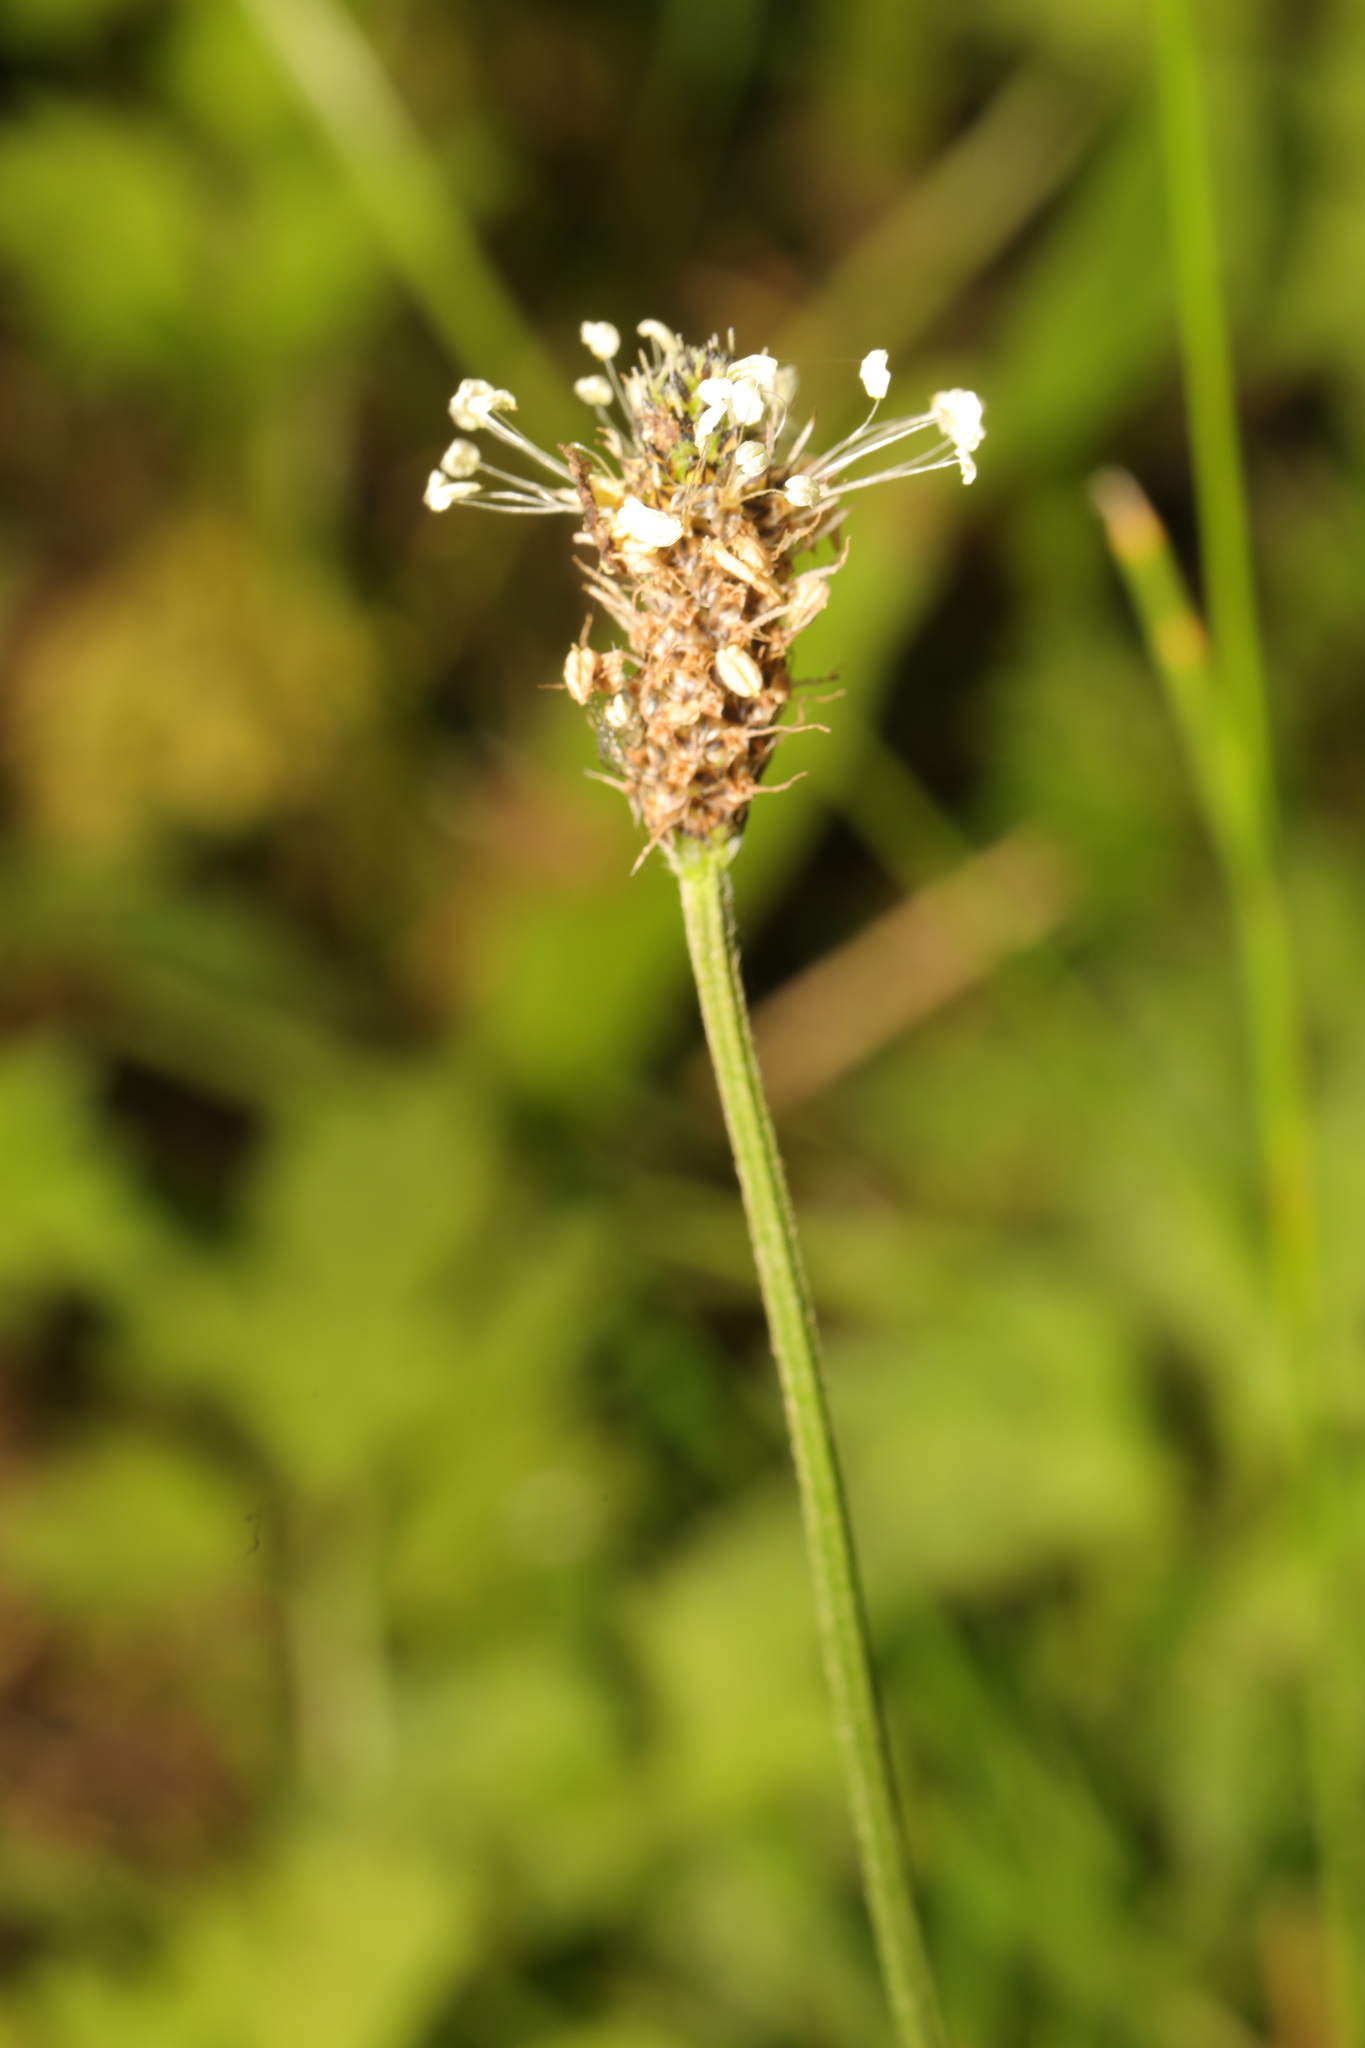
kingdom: Plantae
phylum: Tracheophyta
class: Magnoliopsida
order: Lamiales
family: Plantaginaceae
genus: Plantago
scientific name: Plantago lanceolata
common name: Ribwort plantain
